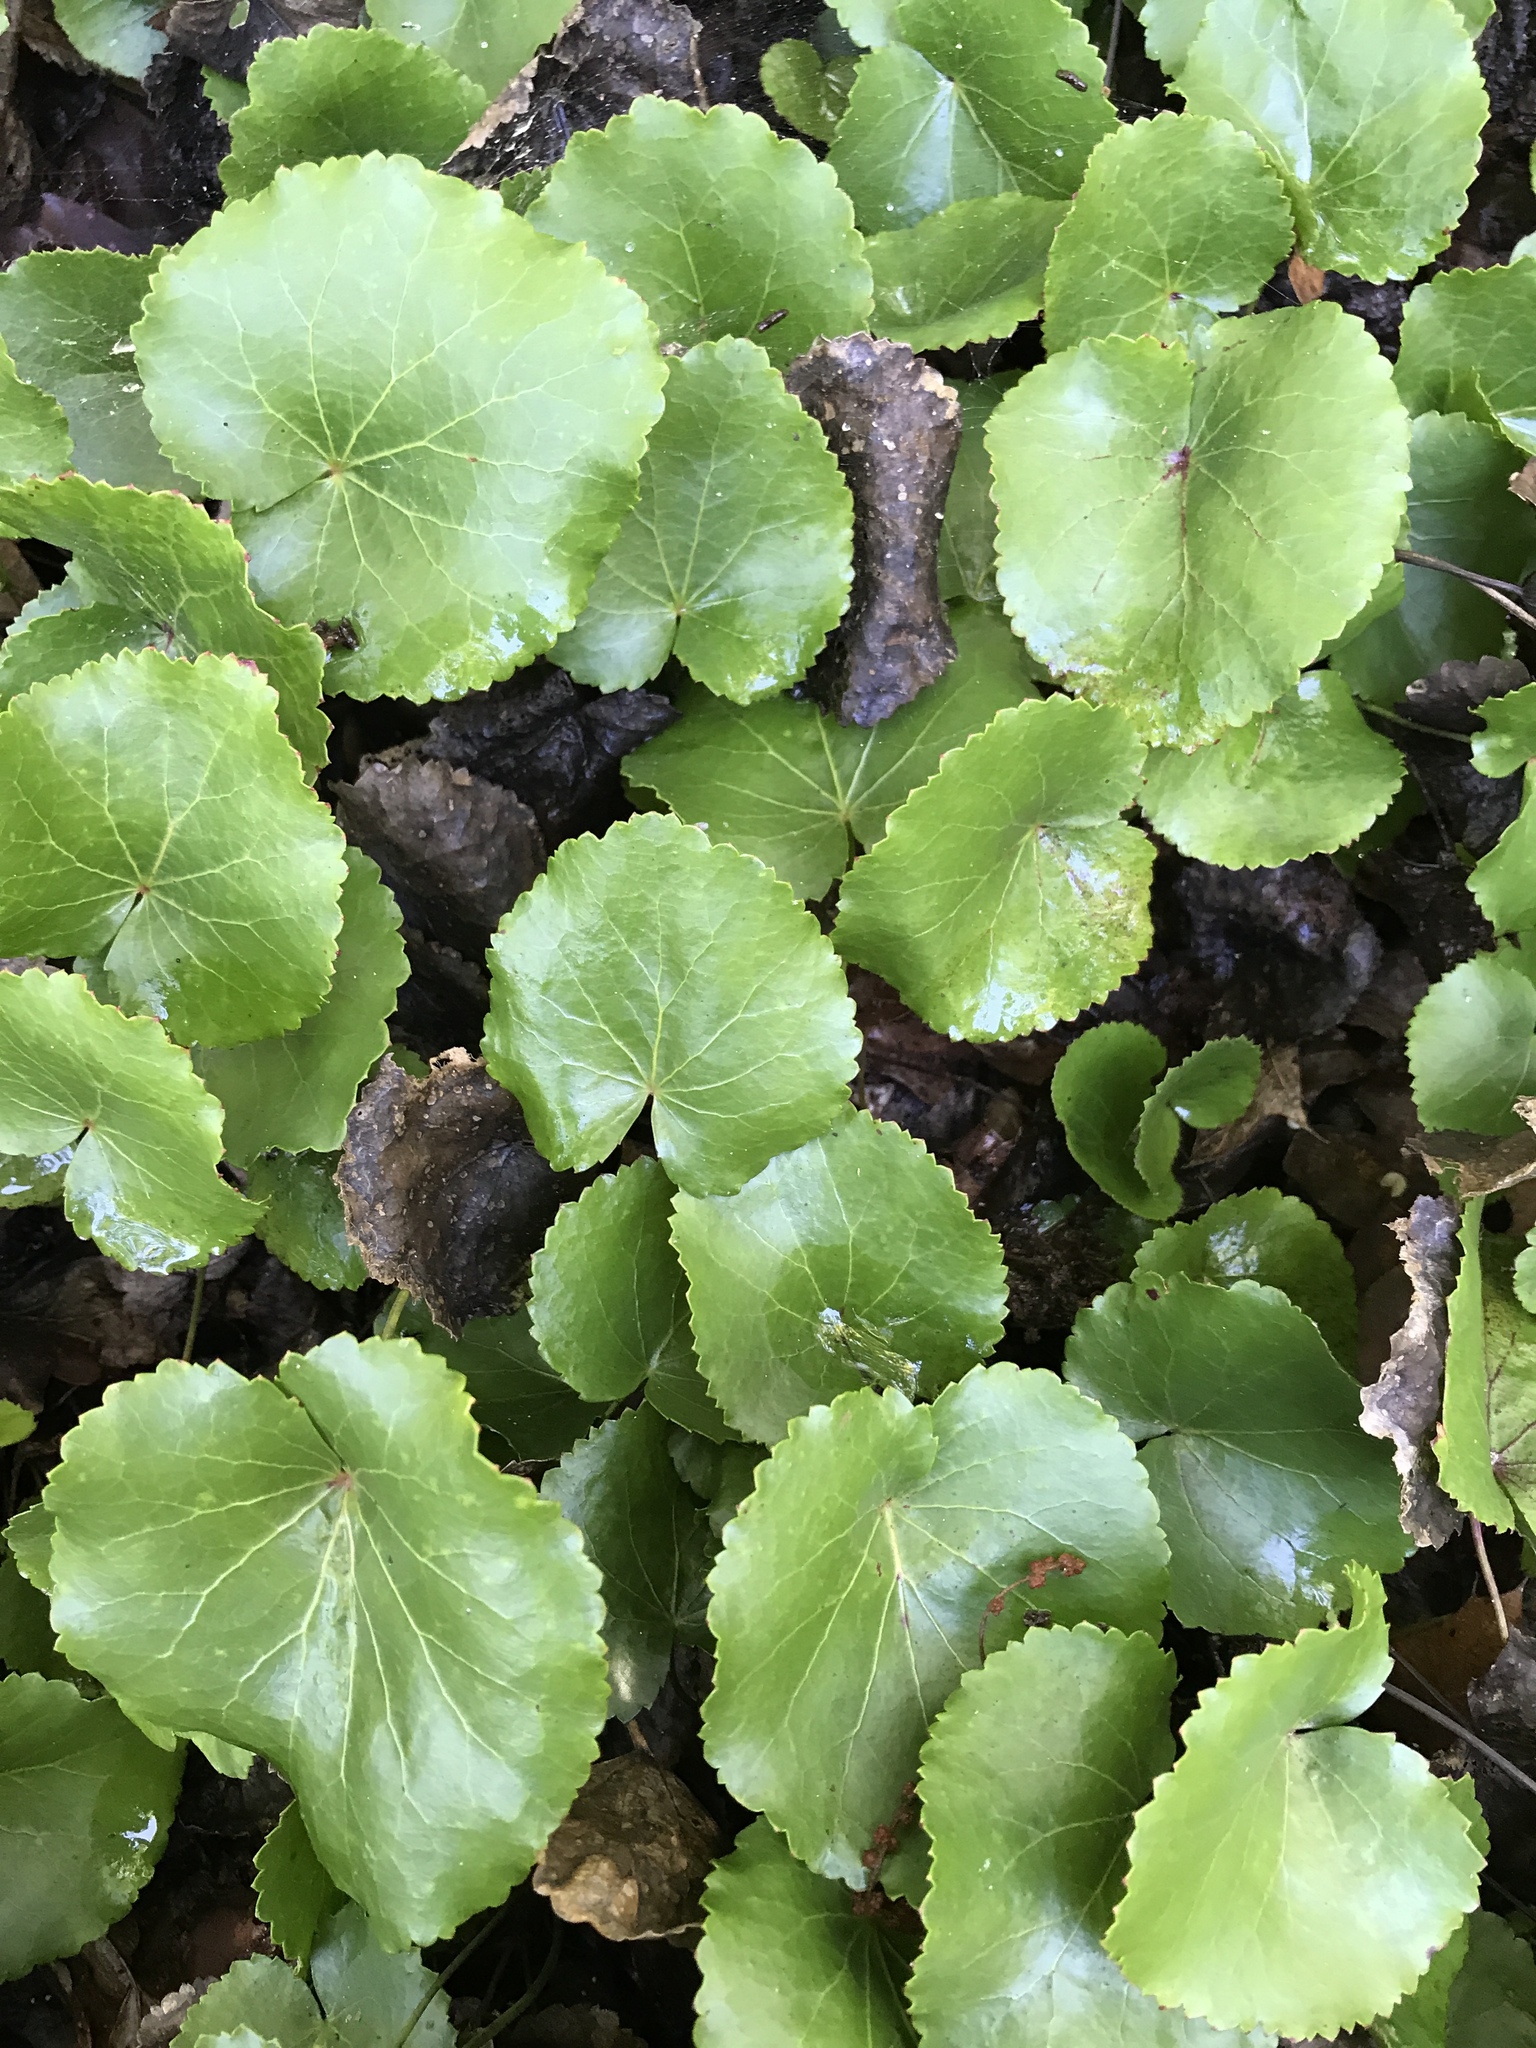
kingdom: Plantae
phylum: Tracheophyta
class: Magnoliopsida
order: Ericales
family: Diapensiaceae
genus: Galax
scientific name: Galax urceolata
